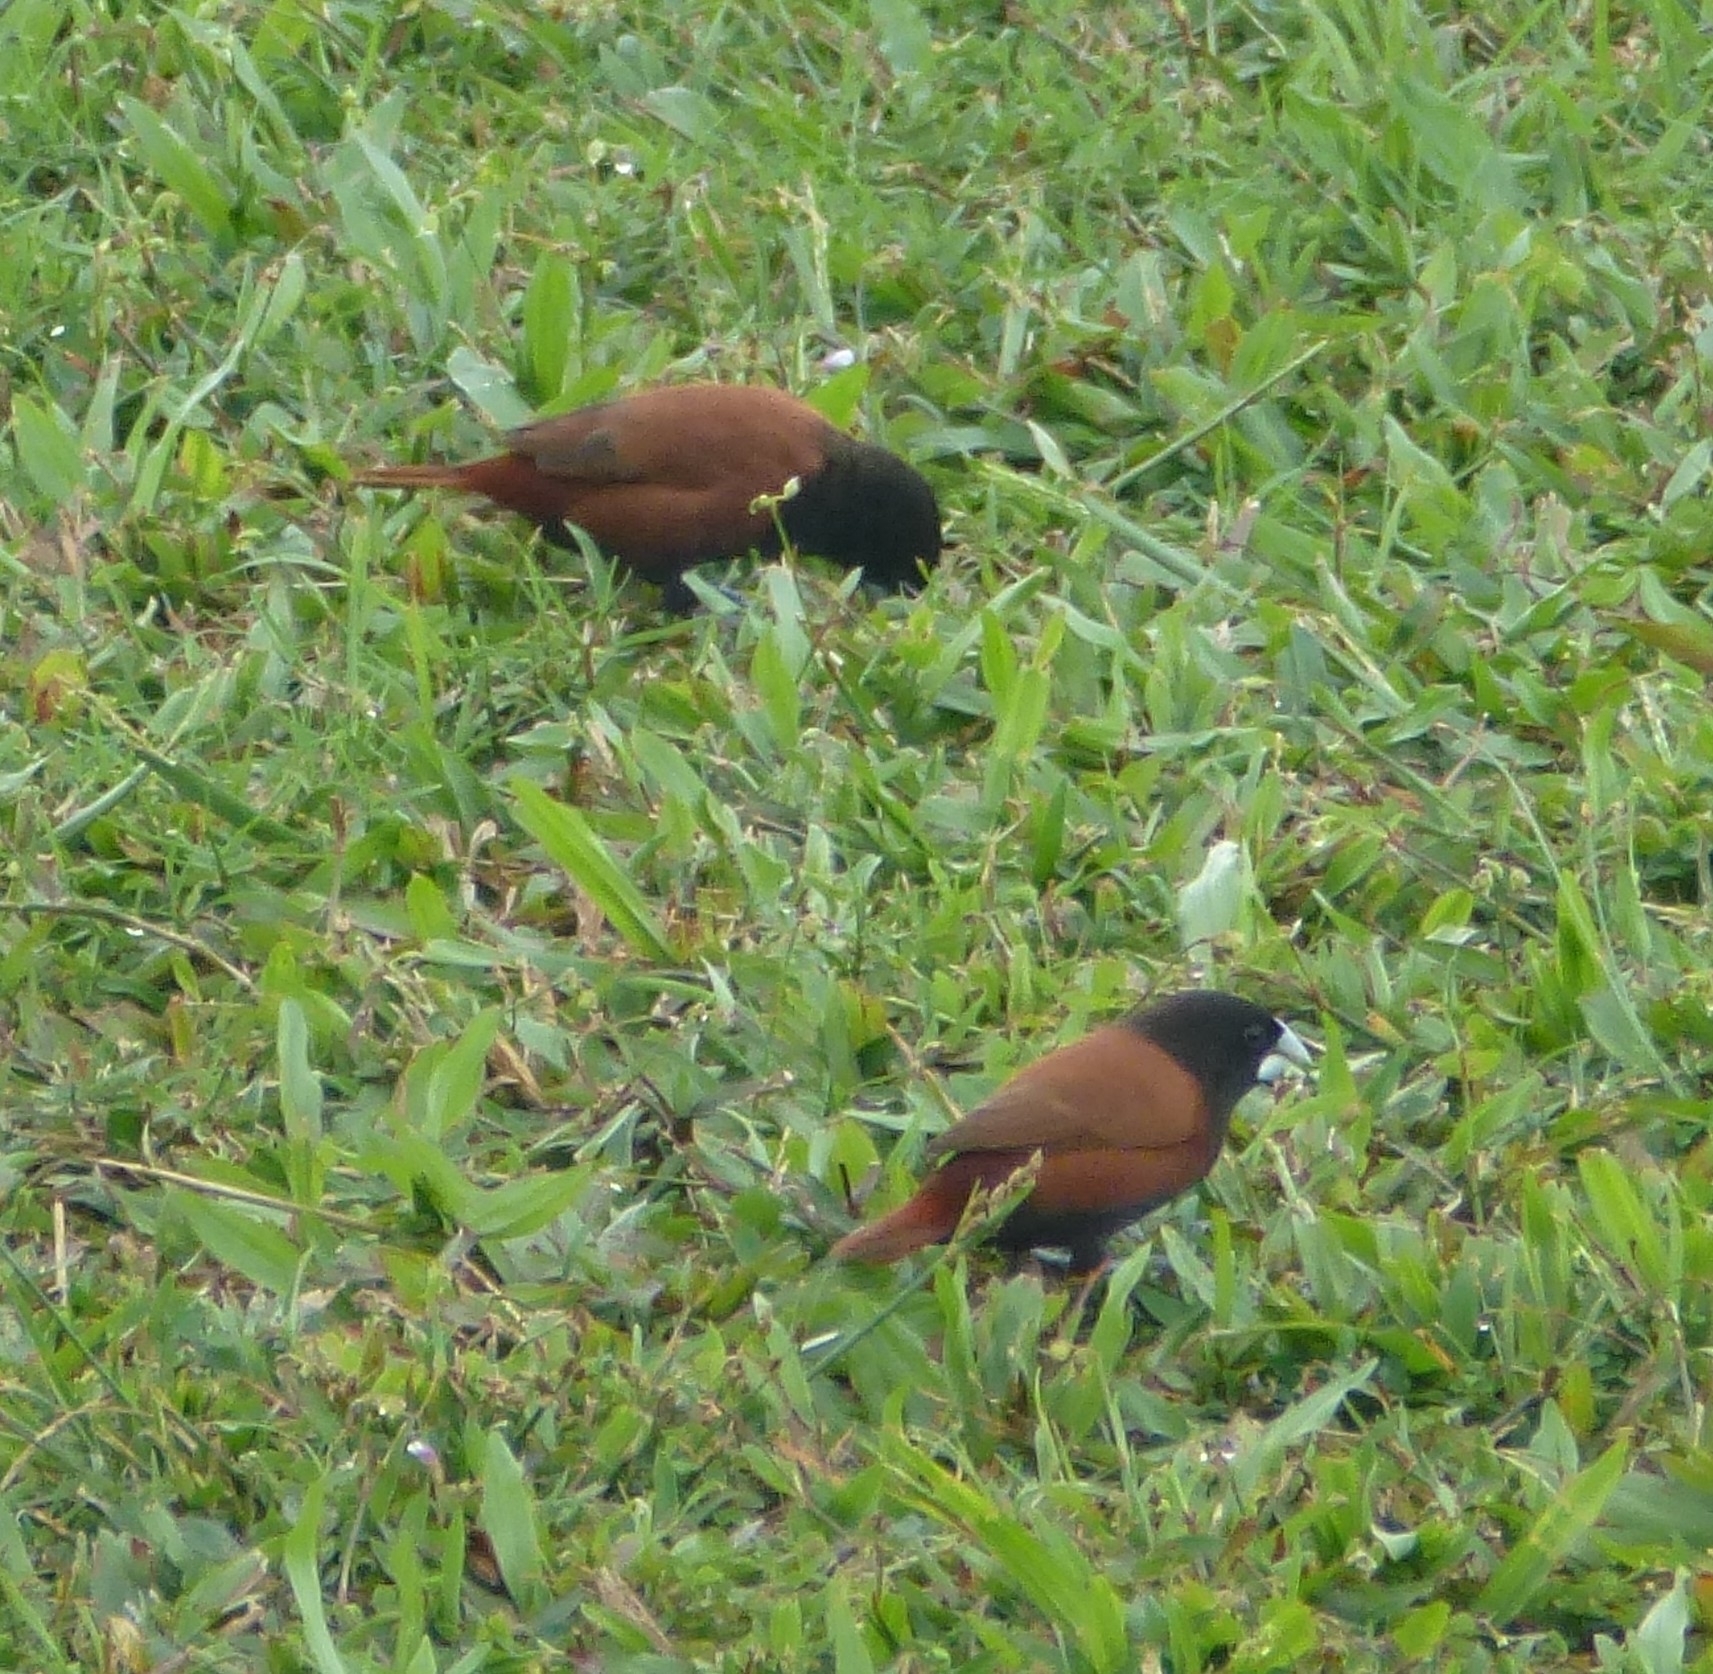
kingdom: Animalia
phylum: Chordata
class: Aves
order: Passeriformes
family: Estrildidae
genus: Lonchura
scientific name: Lonchura atricapilla
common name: Chestnut munia
